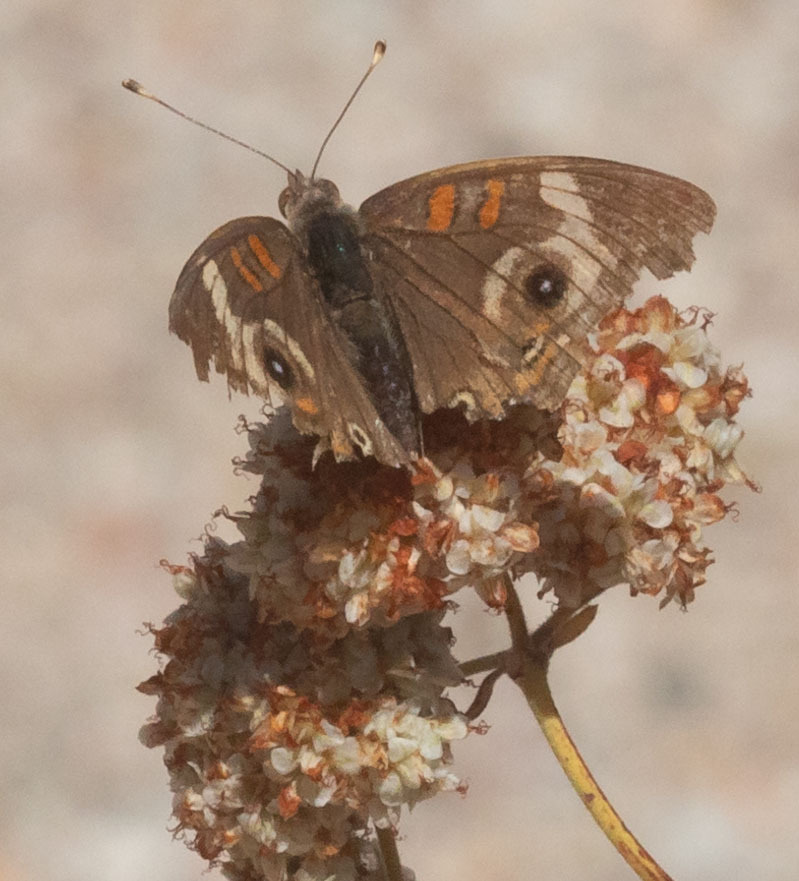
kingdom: Animalia
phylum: Arthropoda
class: Insecta
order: Lepidoptera
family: Nymphalidae
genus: Junonia
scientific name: Junonia grisea
